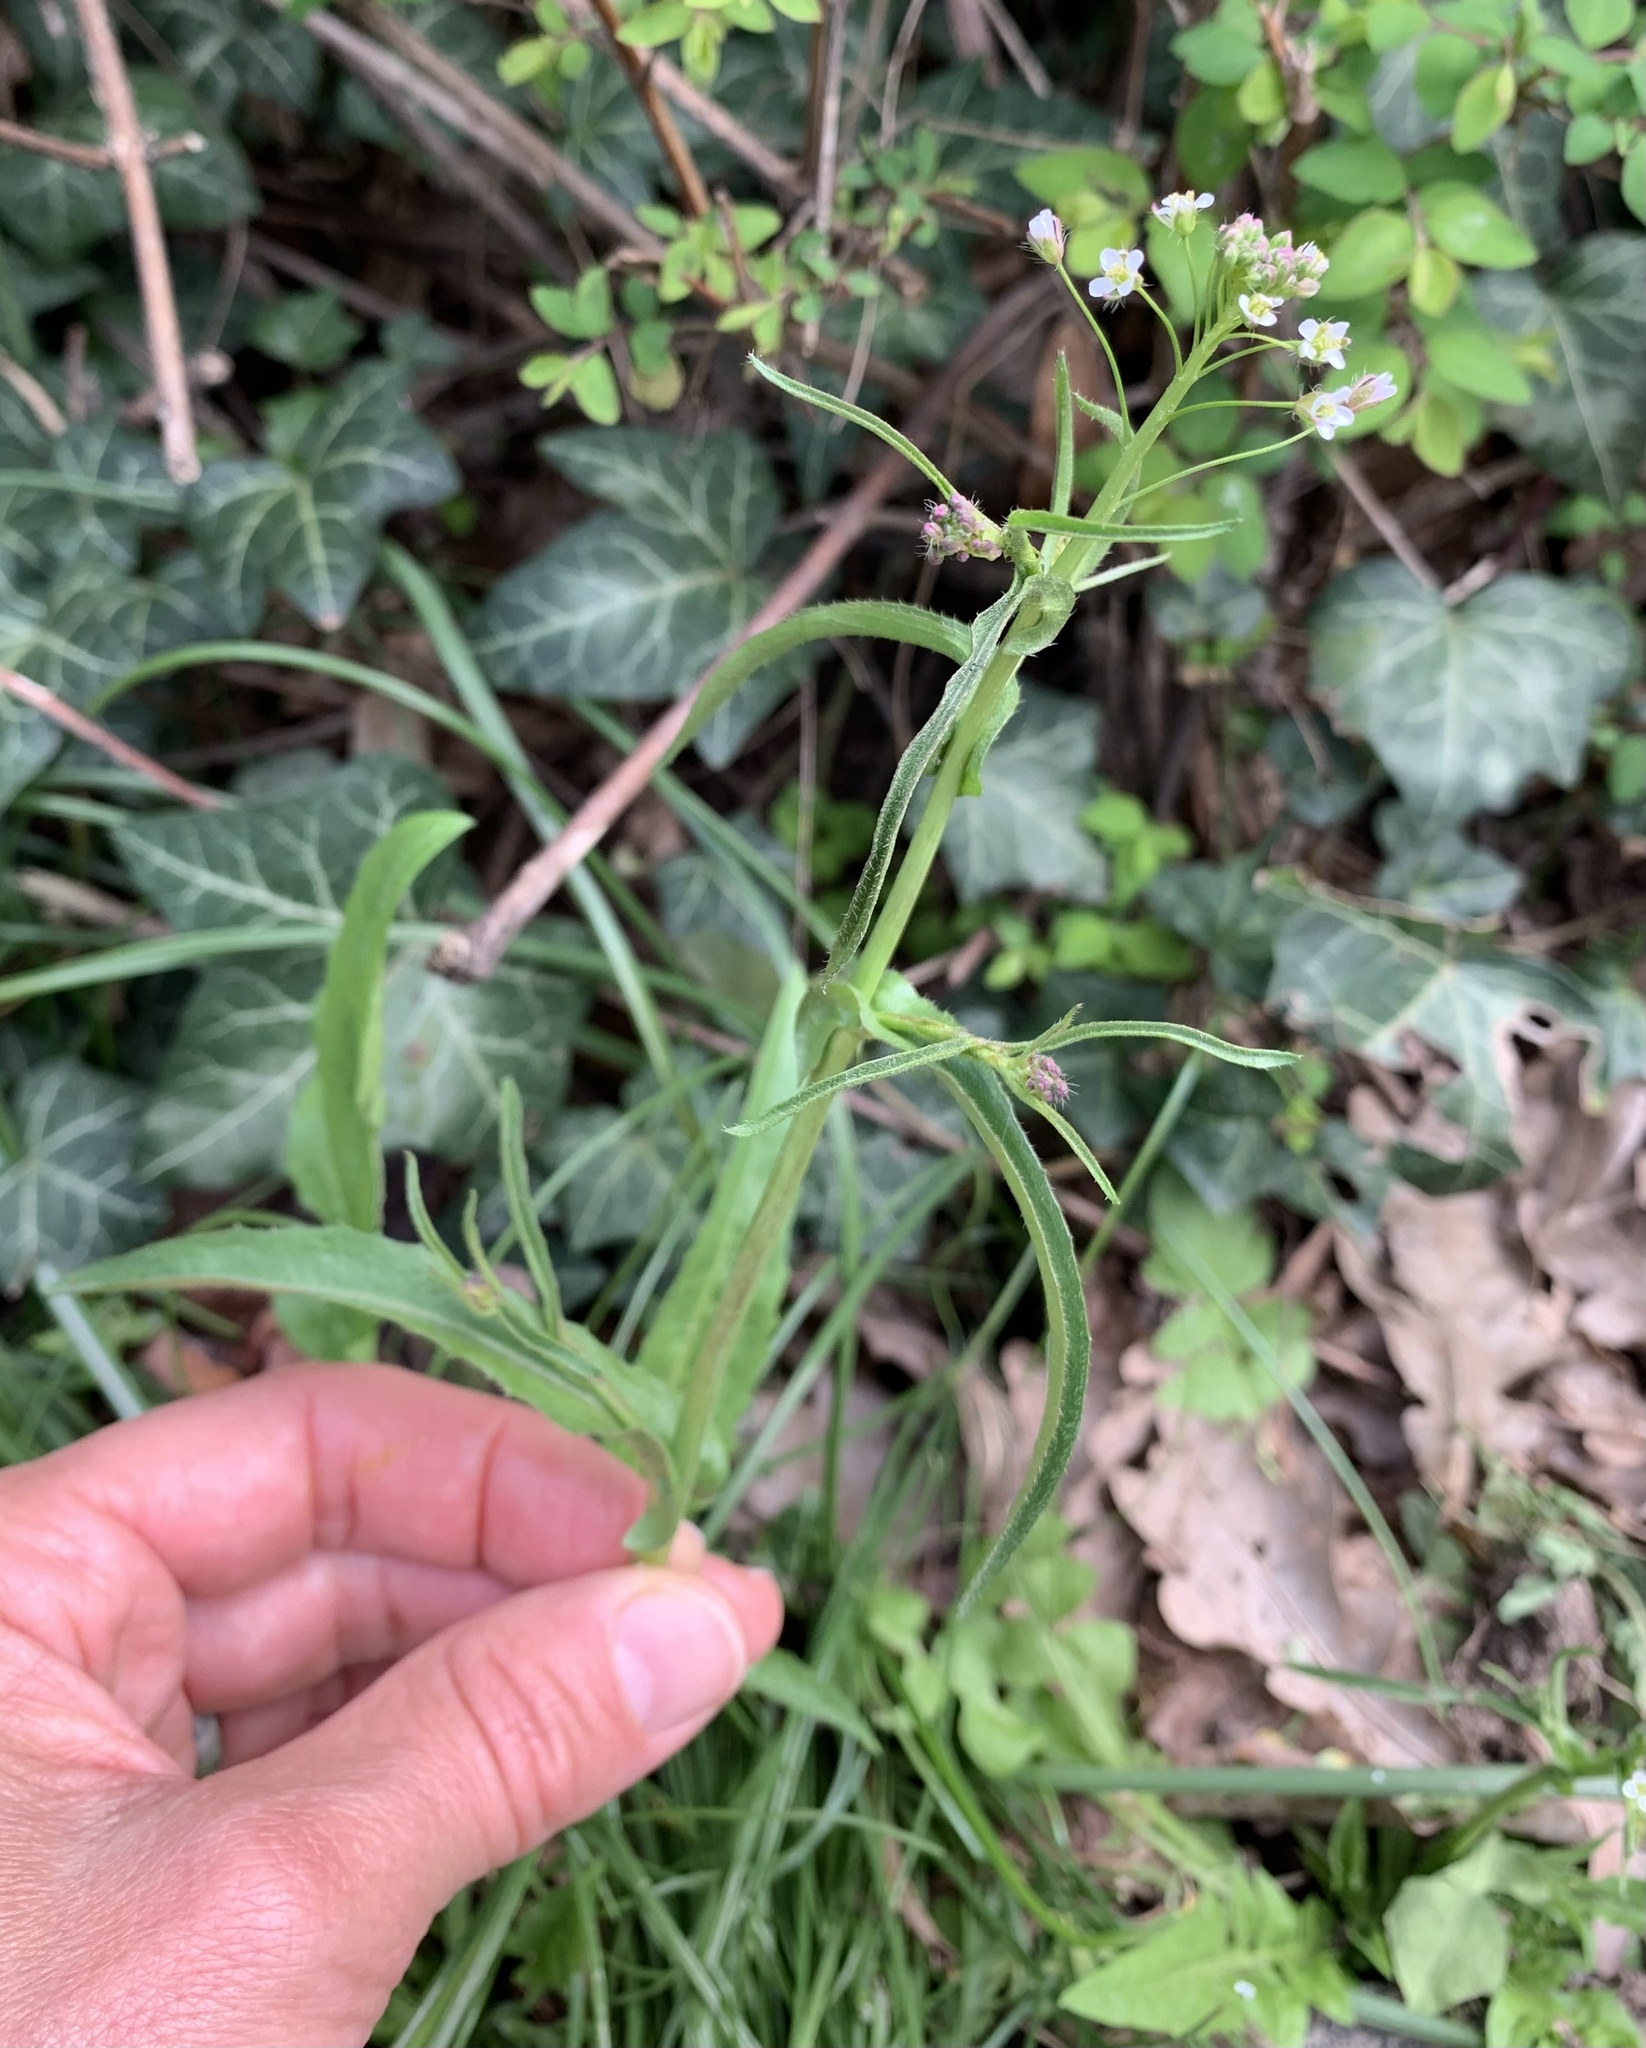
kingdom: Plantae
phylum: Tracheophyta
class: Magnoliopsida
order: Brassicales
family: Brassicaceae
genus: Capsella
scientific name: Capsella bursa-pastoris
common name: Shepherd's purse
